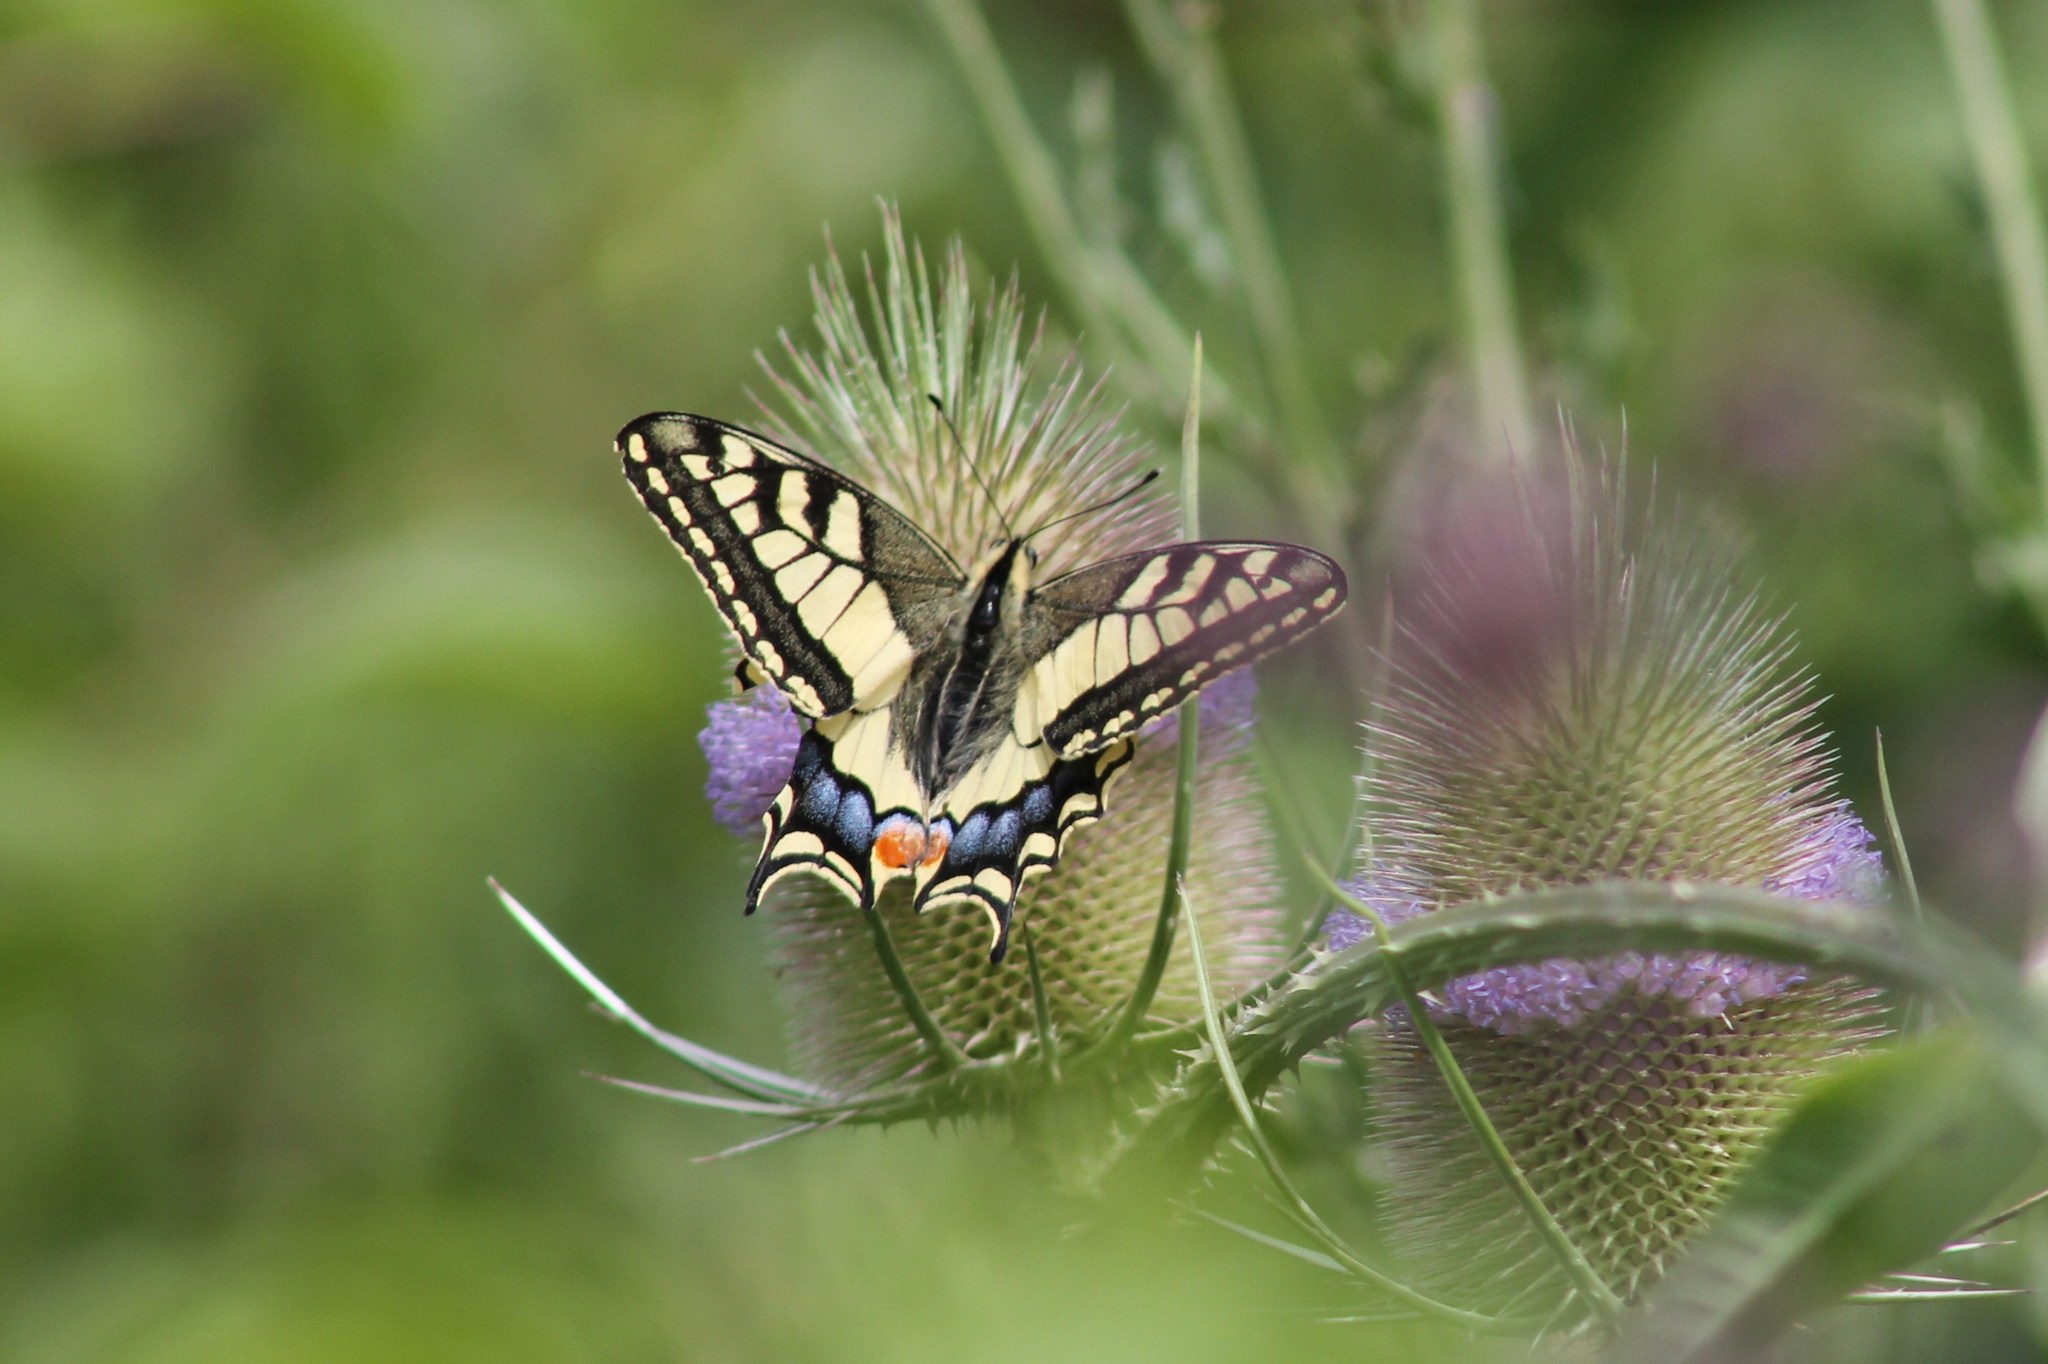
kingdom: Animalia
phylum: Arthropoda
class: Insecta
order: Lepidoptera
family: Papilionidae
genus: Papilio
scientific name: Papilio machaon
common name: Swallowtail
